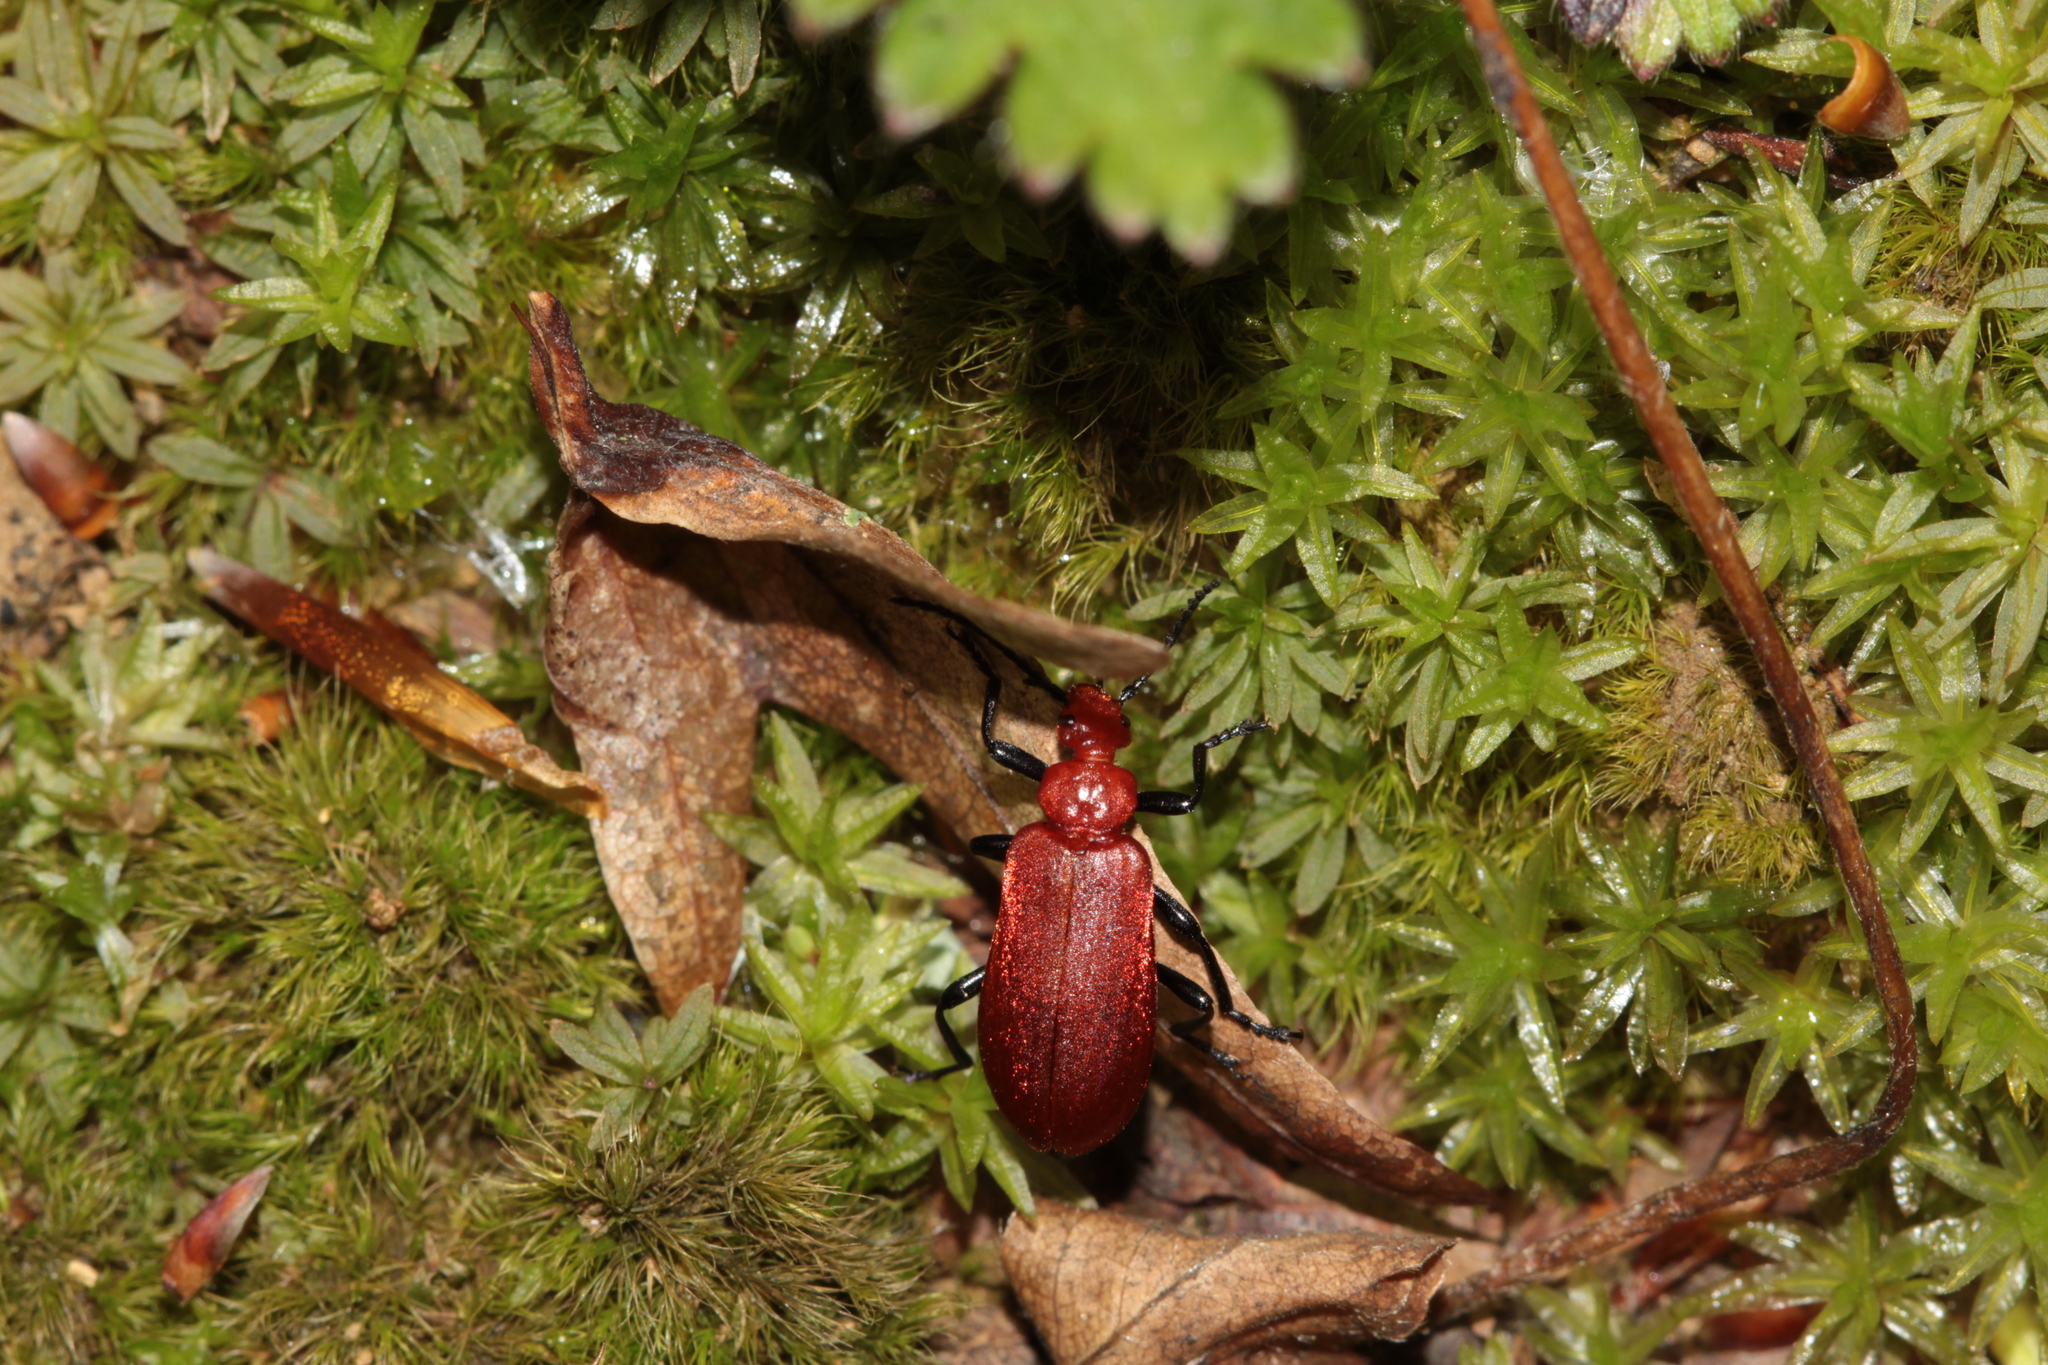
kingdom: Animalia
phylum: Arthropoda
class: Insecta
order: Coleoptera
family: Pyrochroidae
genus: Pyrochroa
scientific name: Pyrochroa serraticornis
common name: Red-headed cardinal beetle
